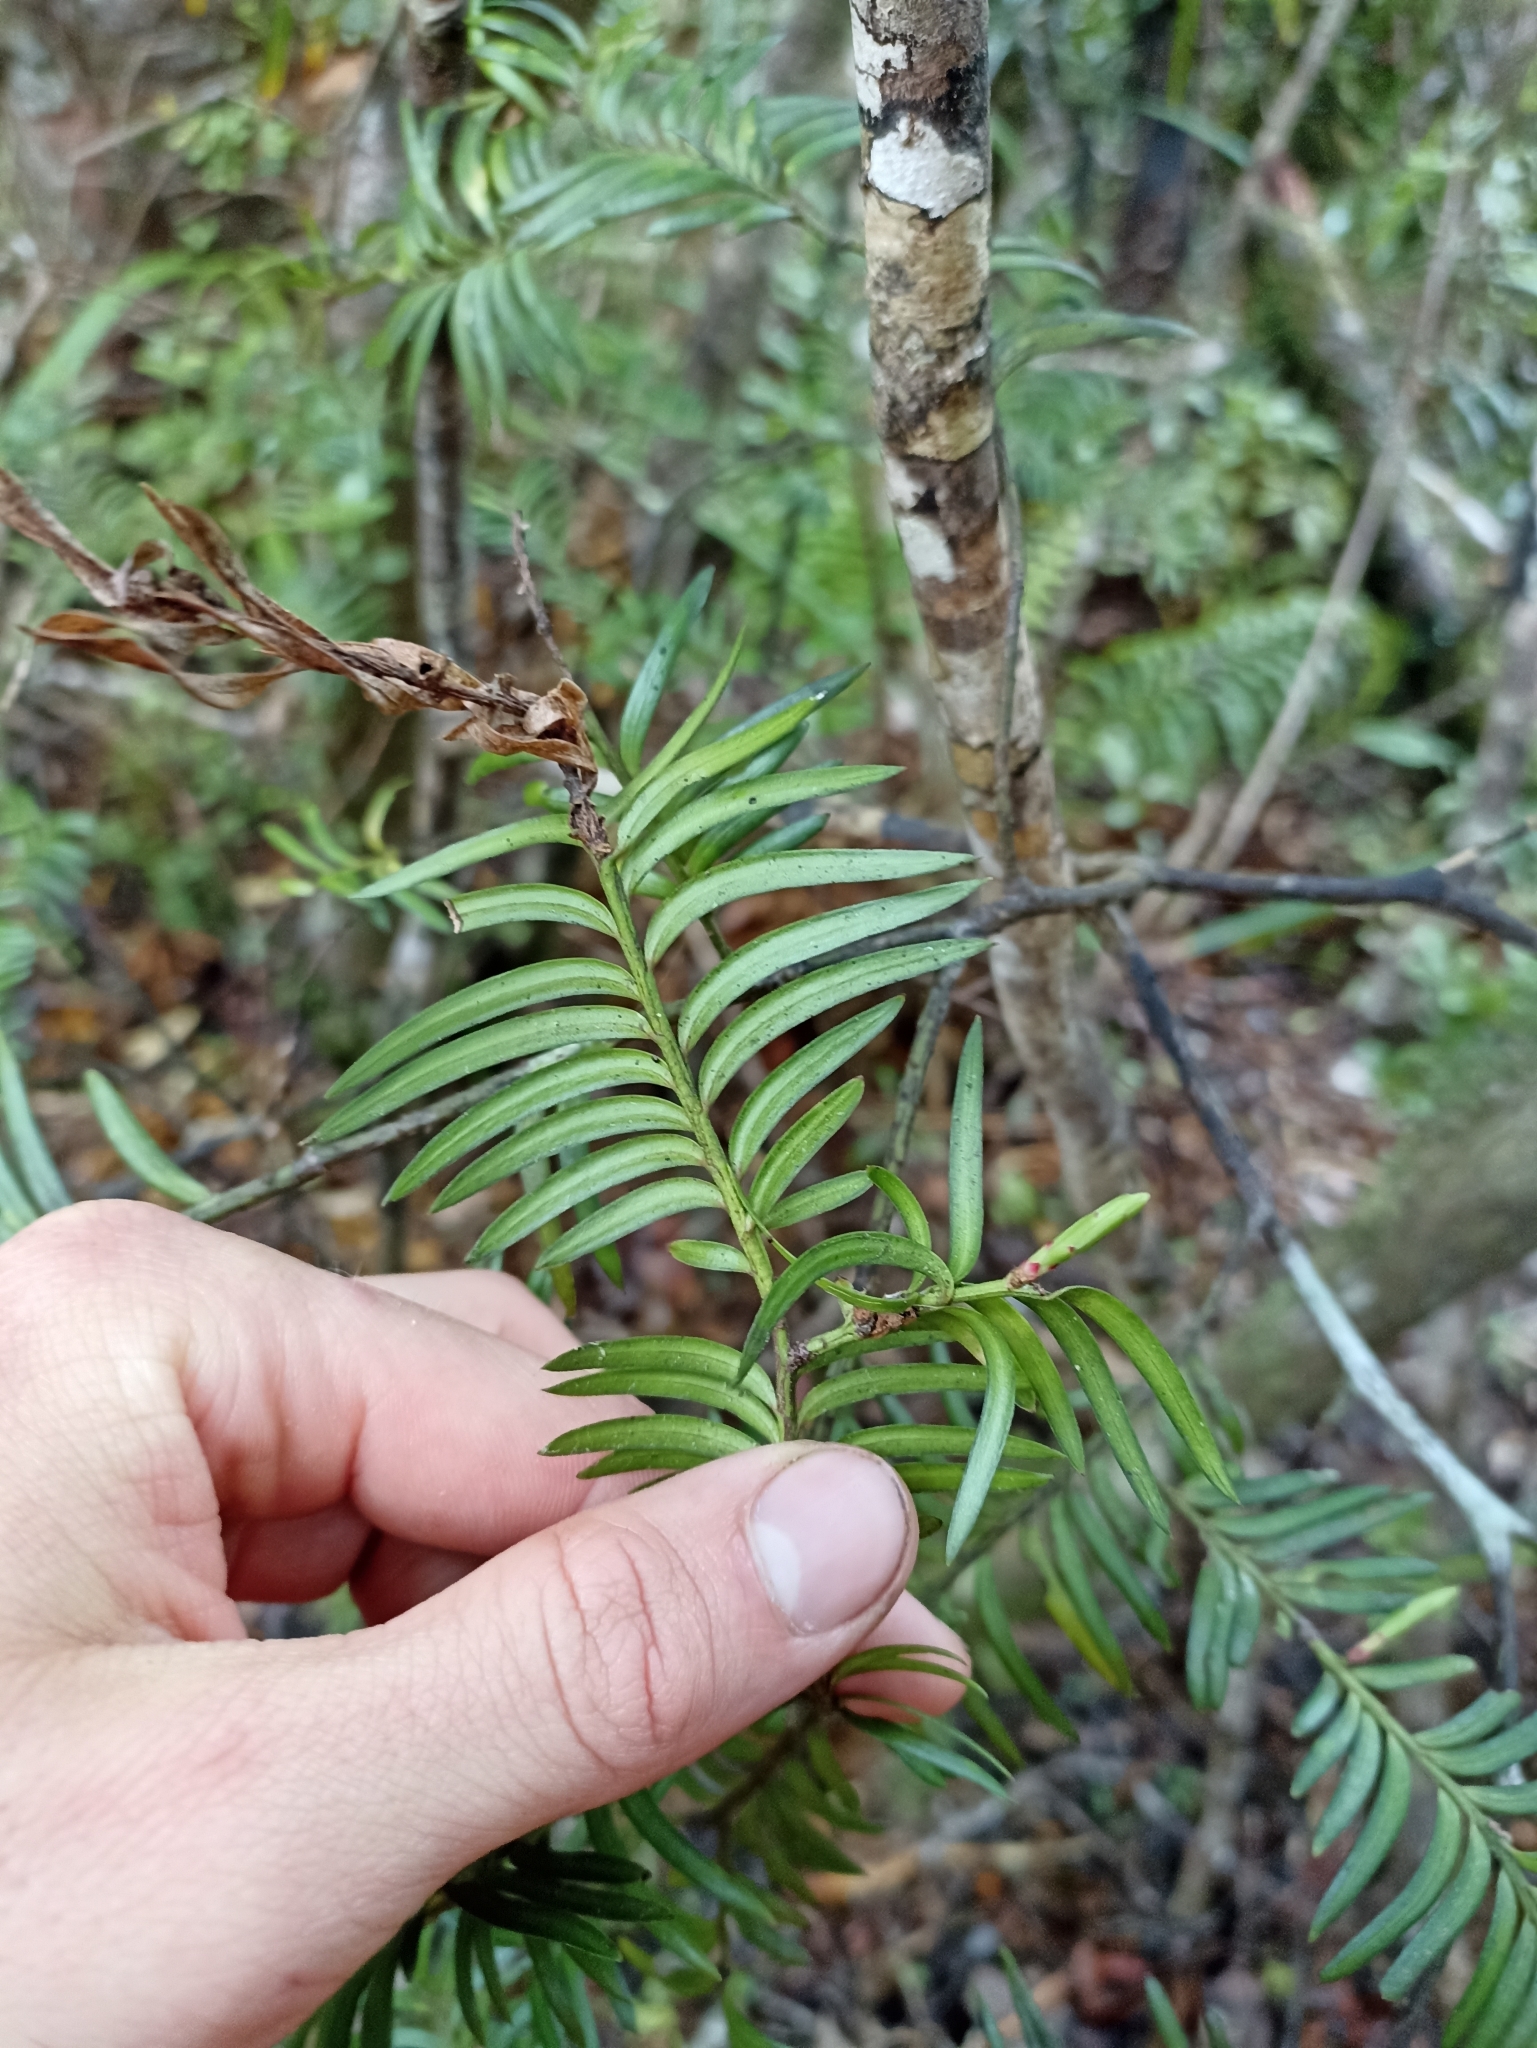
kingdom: Plantae
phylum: Tracheophyta
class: Pinopsida
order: Pinales
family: Podocarpaceae
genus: Prumnopitys
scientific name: Prumnopitys ferruginea
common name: Brown pine
